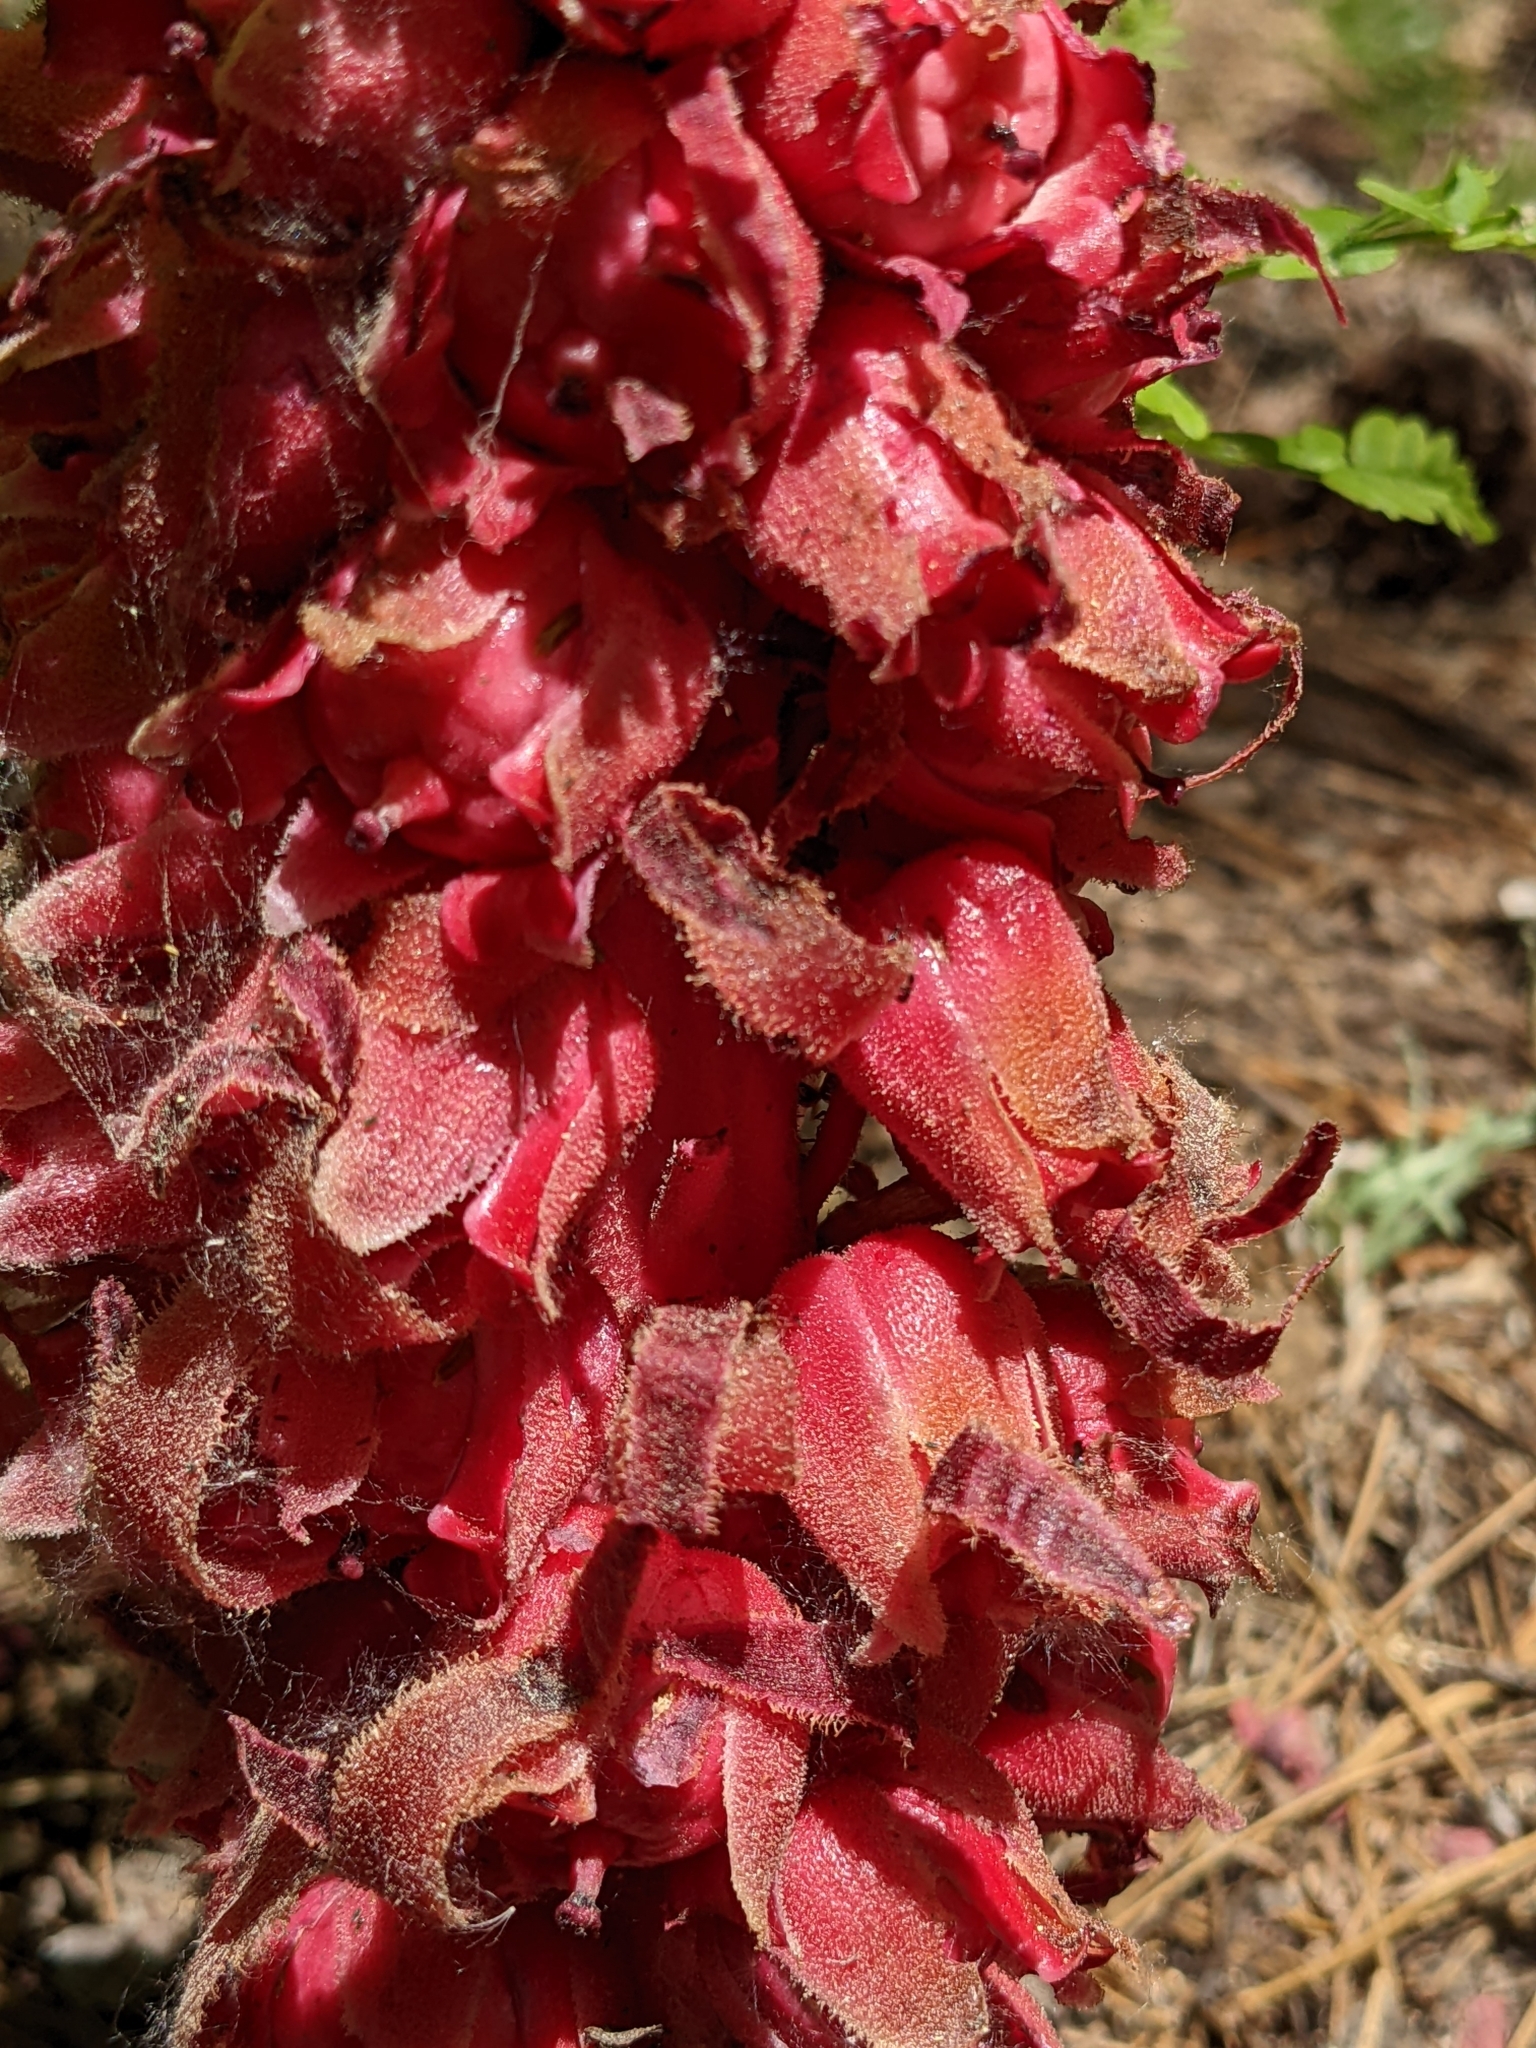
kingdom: Plantae
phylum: Tracheophyta
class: Magnoliopsida
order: Ericales
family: Ericaceae
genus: Sarcodes
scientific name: Sarcodes sanguinea
